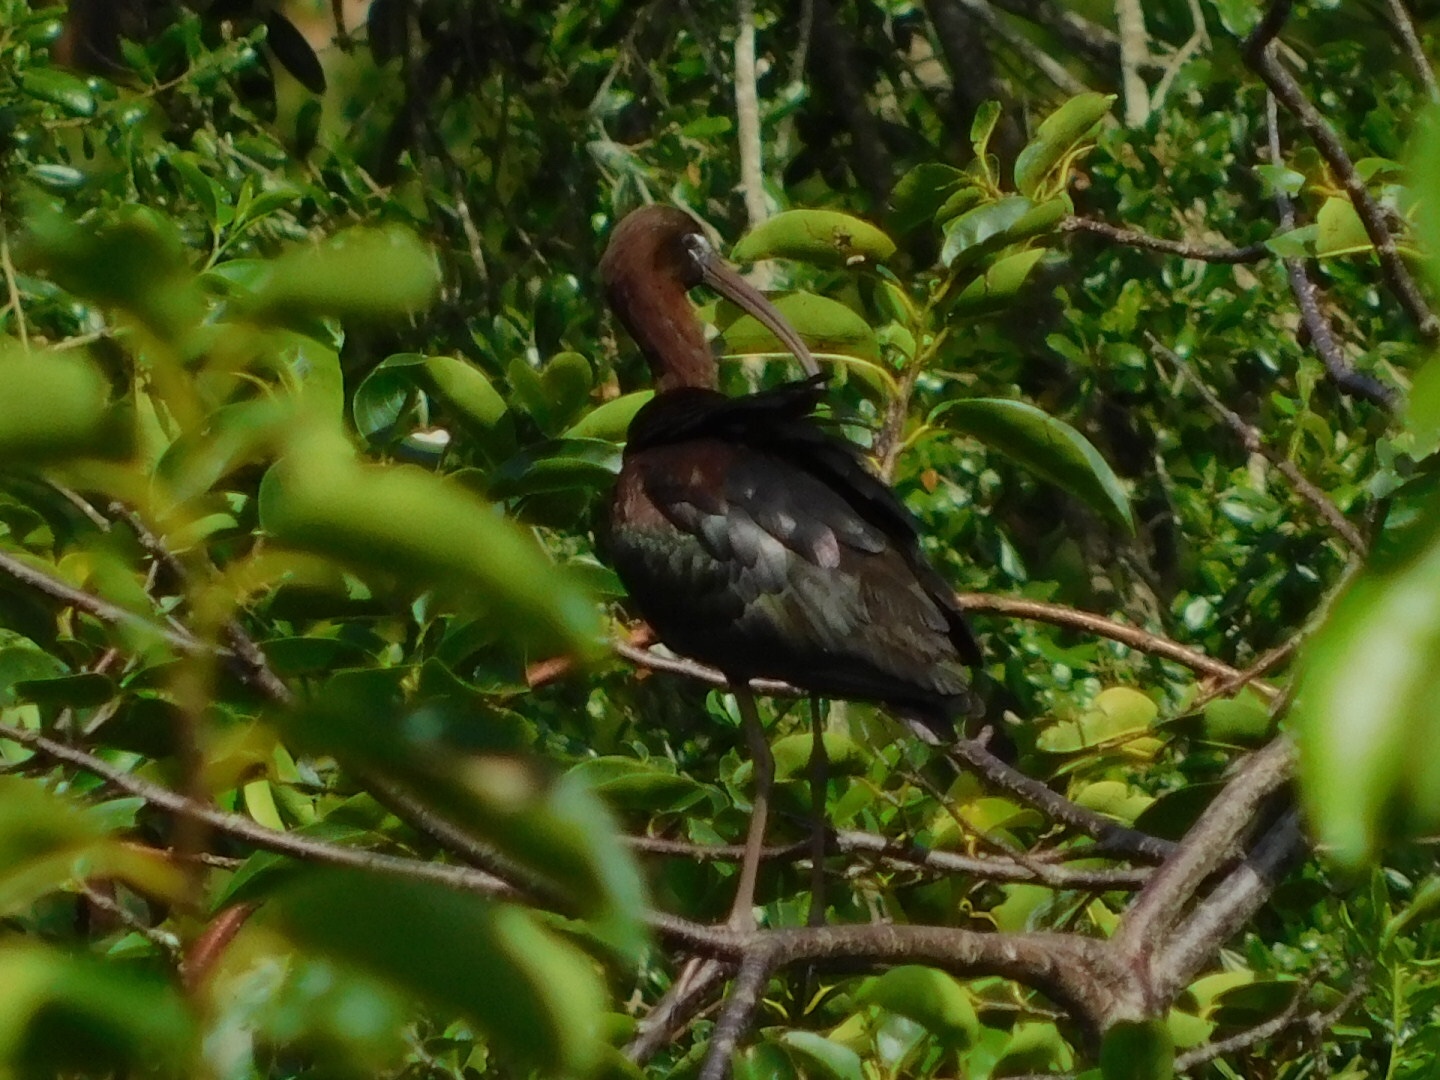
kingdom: Animalia
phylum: Chordata
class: Aves
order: Pelecaniformes
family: Threskiornithidae
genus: Plegadis
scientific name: Plegadis falcinellus
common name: Glossy ibis
